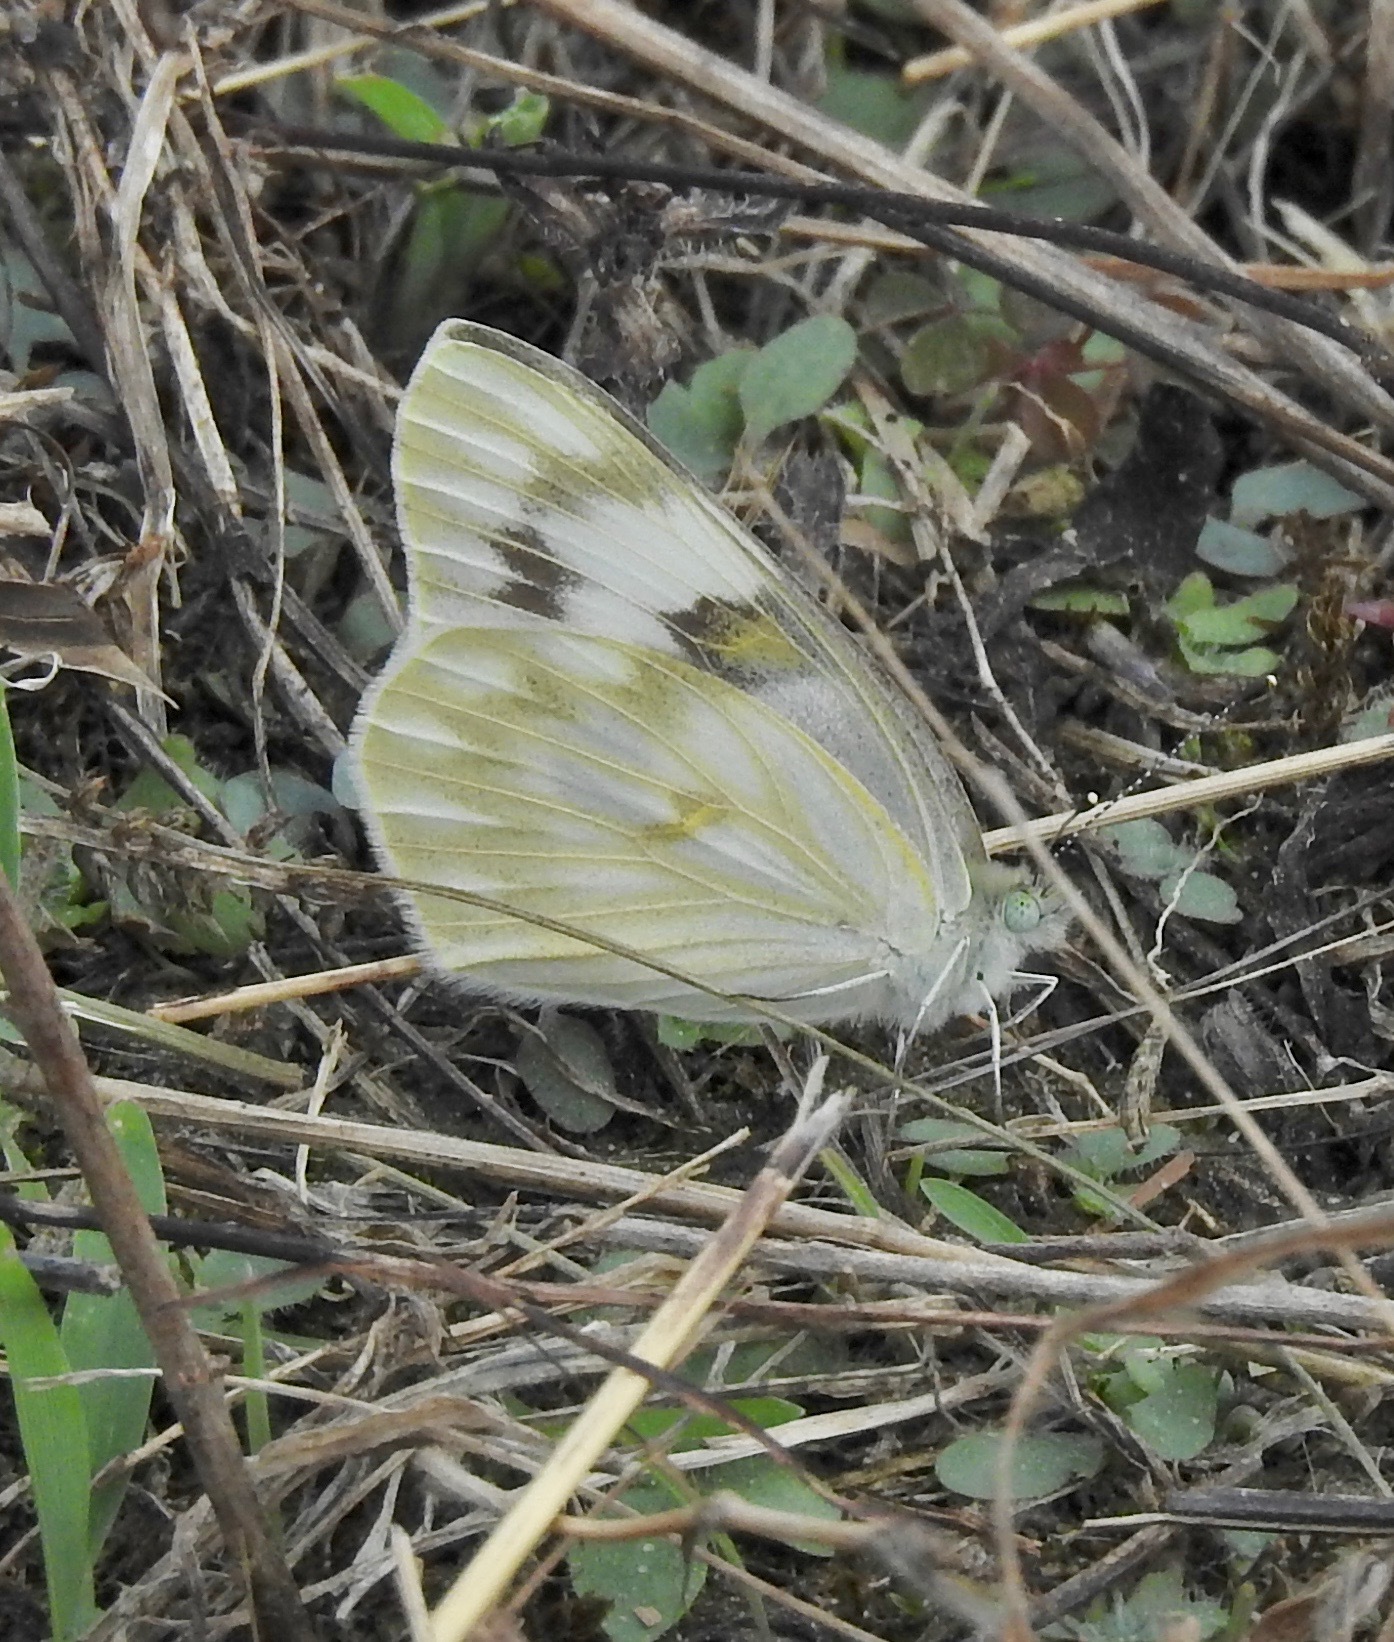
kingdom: Animalia
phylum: Arthropoda
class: Insecta
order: Lepidoptera
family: Pieridae
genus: Pontia
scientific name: Pontia protodice
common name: Checkered white
